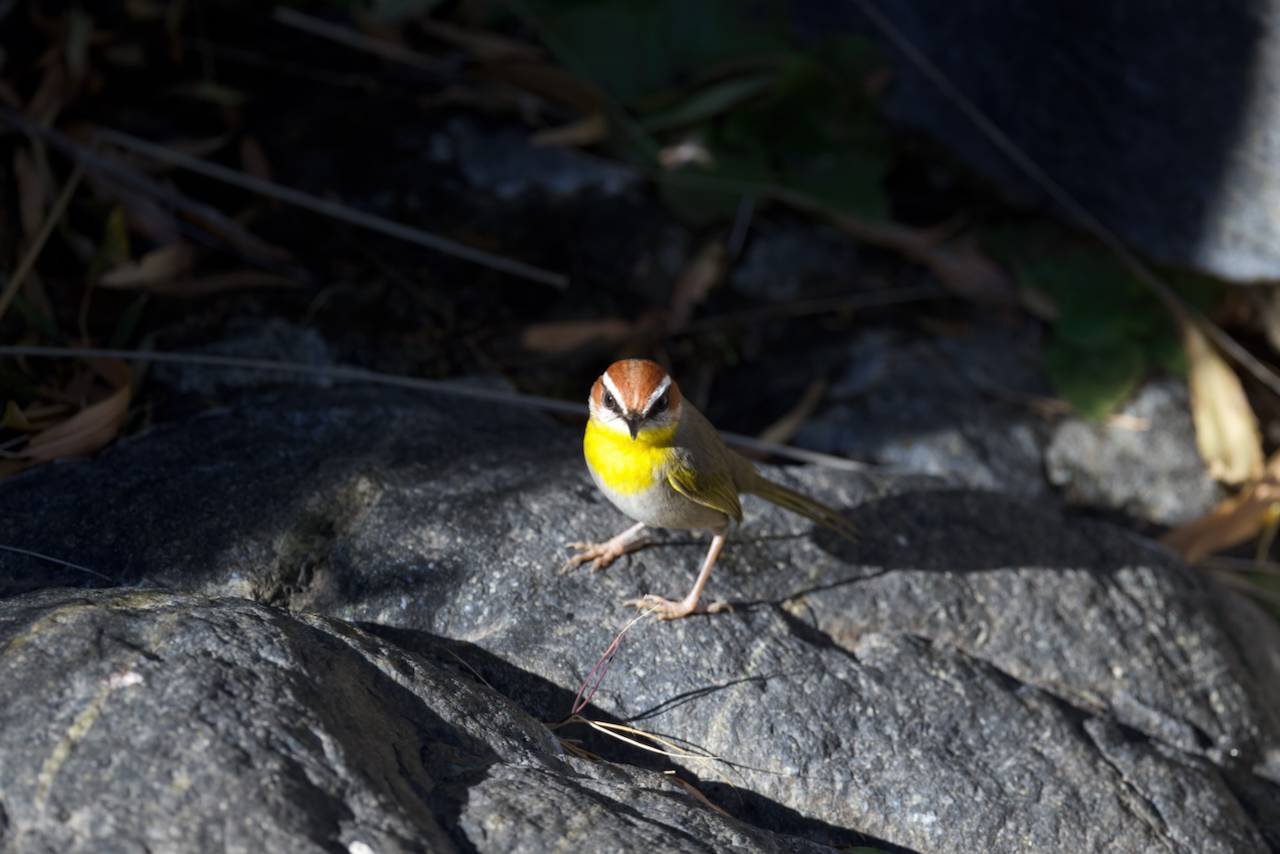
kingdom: Animalia
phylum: Chordata
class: Aves
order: Passeriformes
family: Parulidae
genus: Basileuterus
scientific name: Basileuterus rufifrons
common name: Rufous-capped warbler
